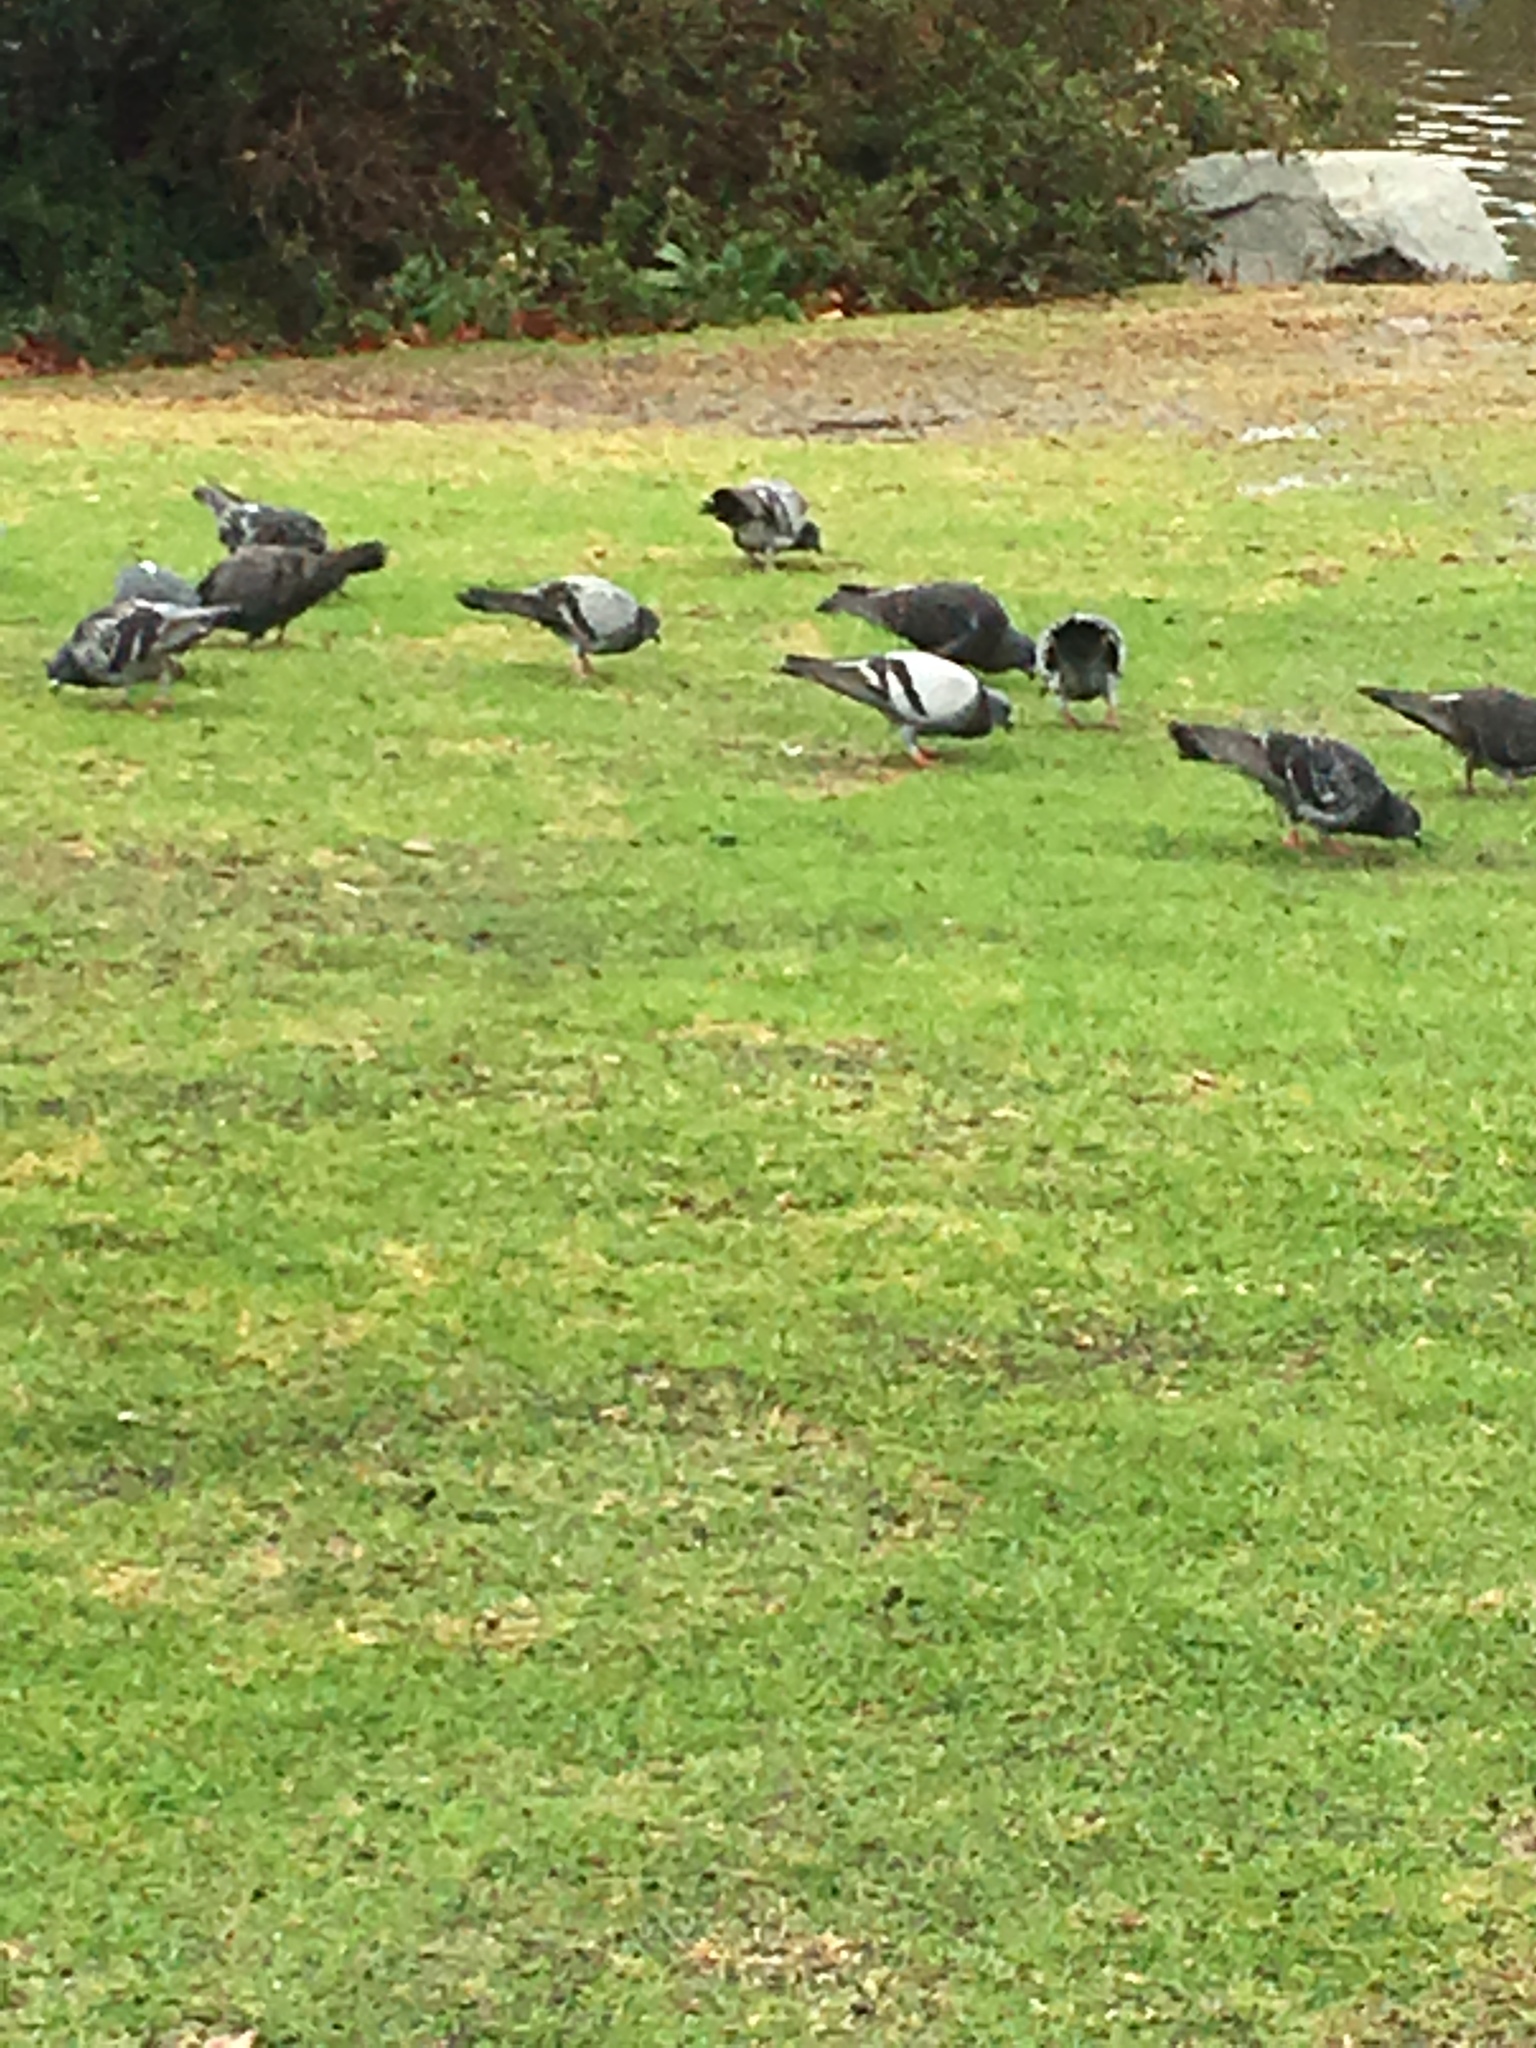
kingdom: Animalia
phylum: Chordata
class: Aves
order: Columbiformes
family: Columbidae
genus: Columba
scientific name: Columba livia
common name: Rock pigeon
